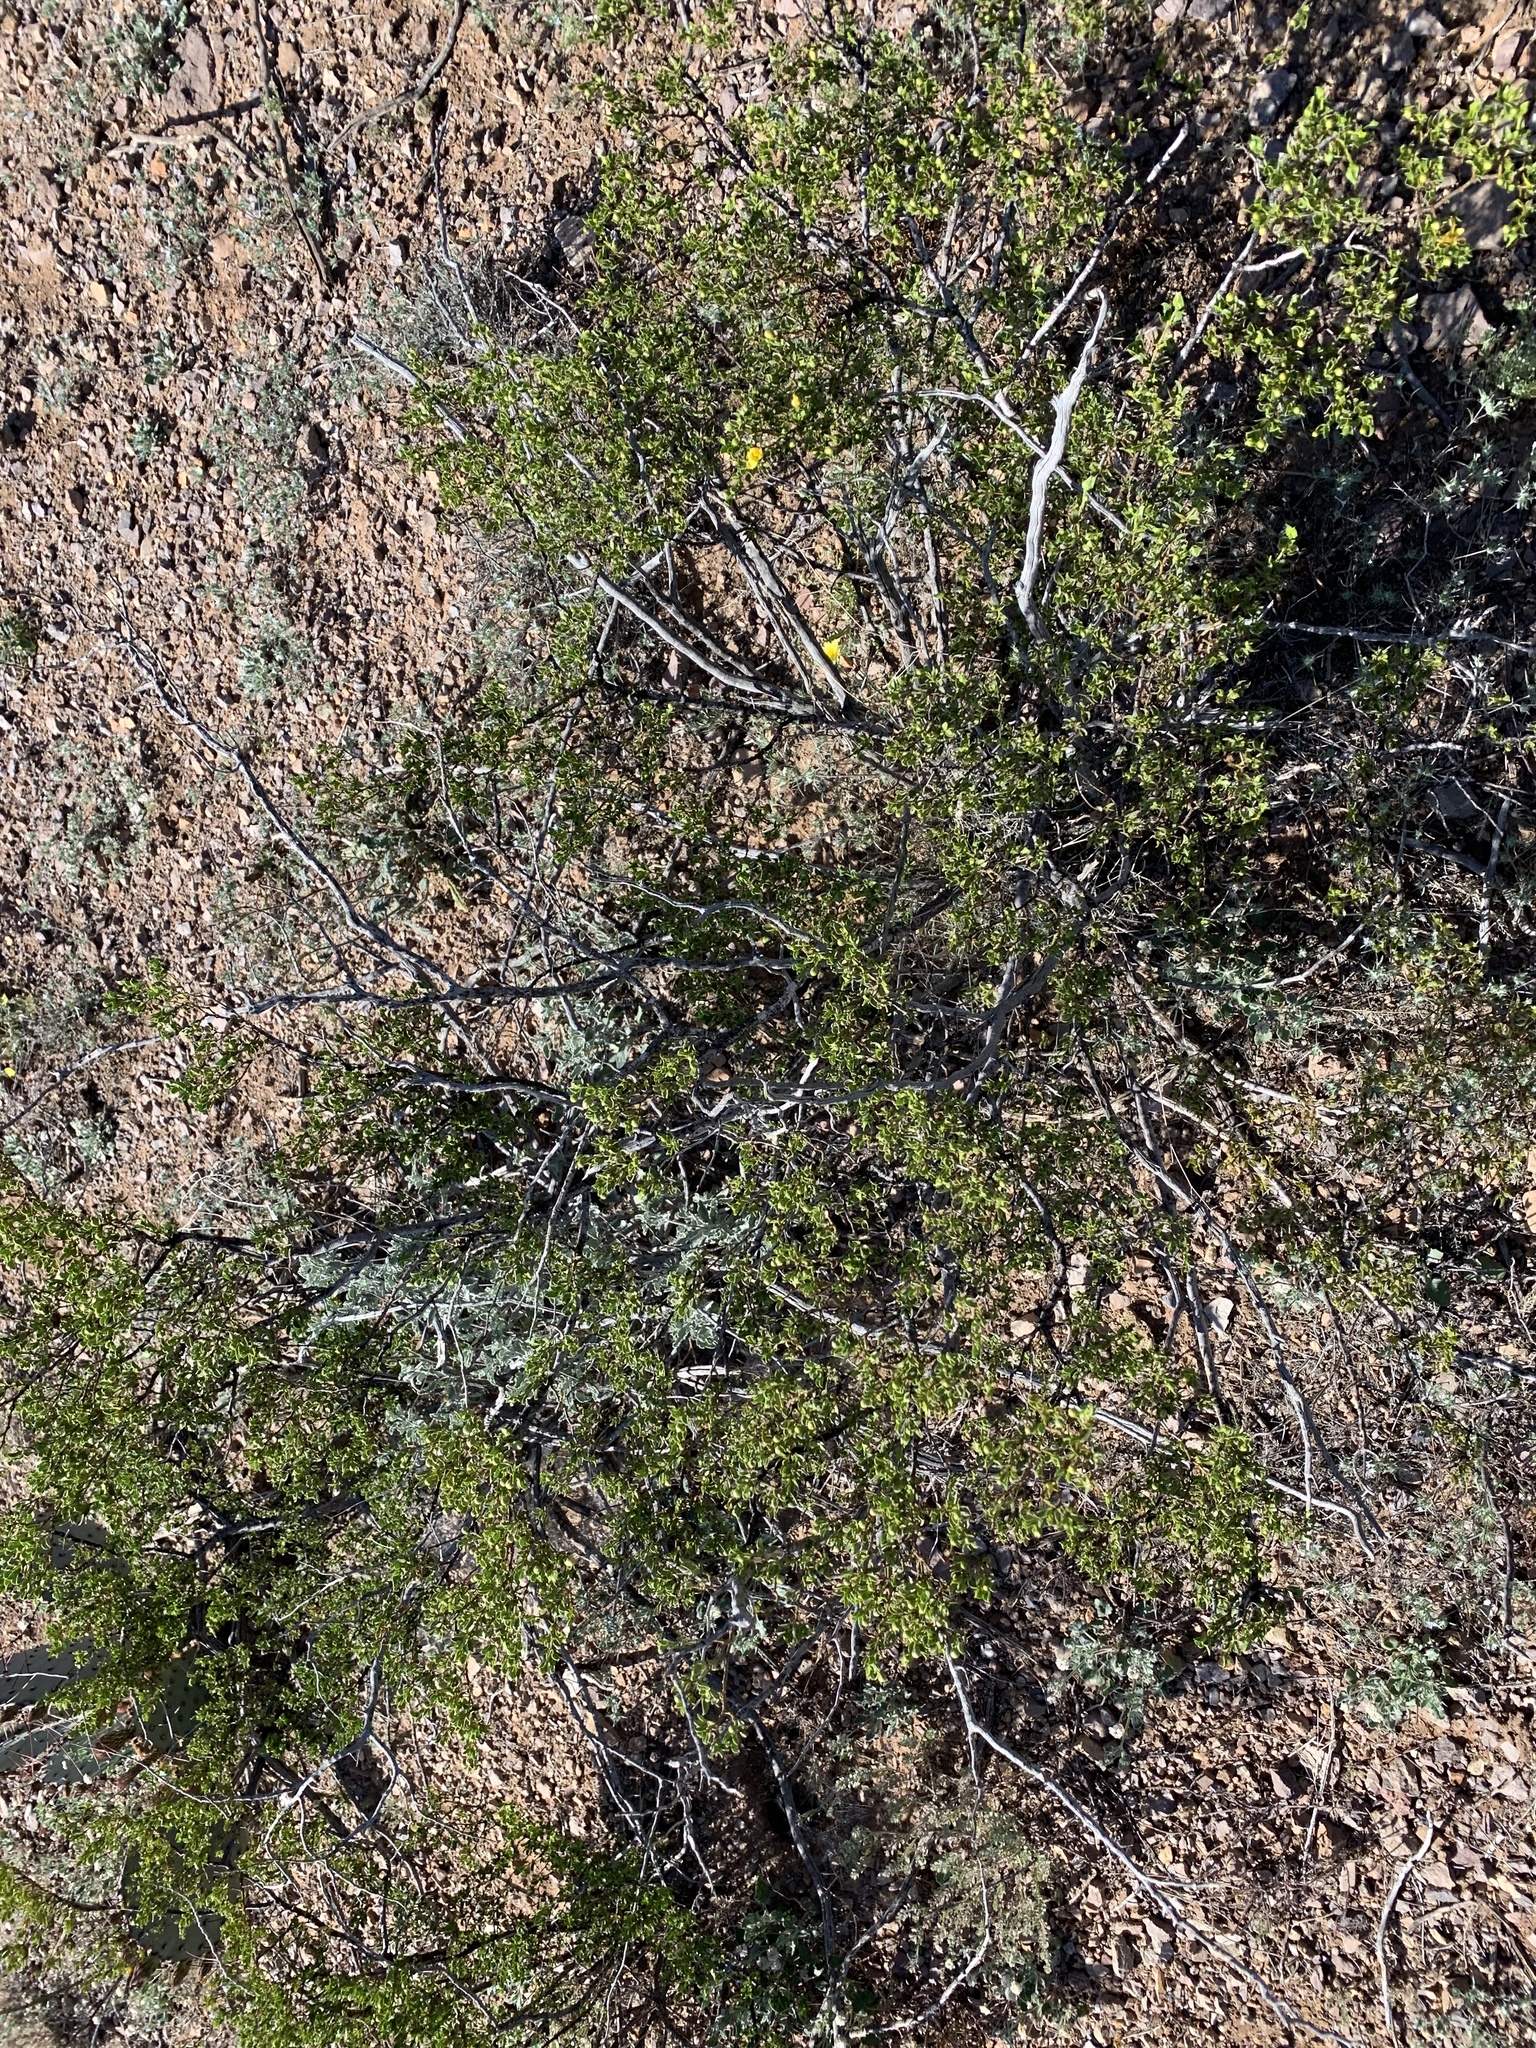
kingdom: Plantae
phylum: Tracheophyta
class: Magnoliopsida
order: Zygophyllales
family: Zygophyllaceae
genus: Larrea
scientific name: Larrea tridentata
